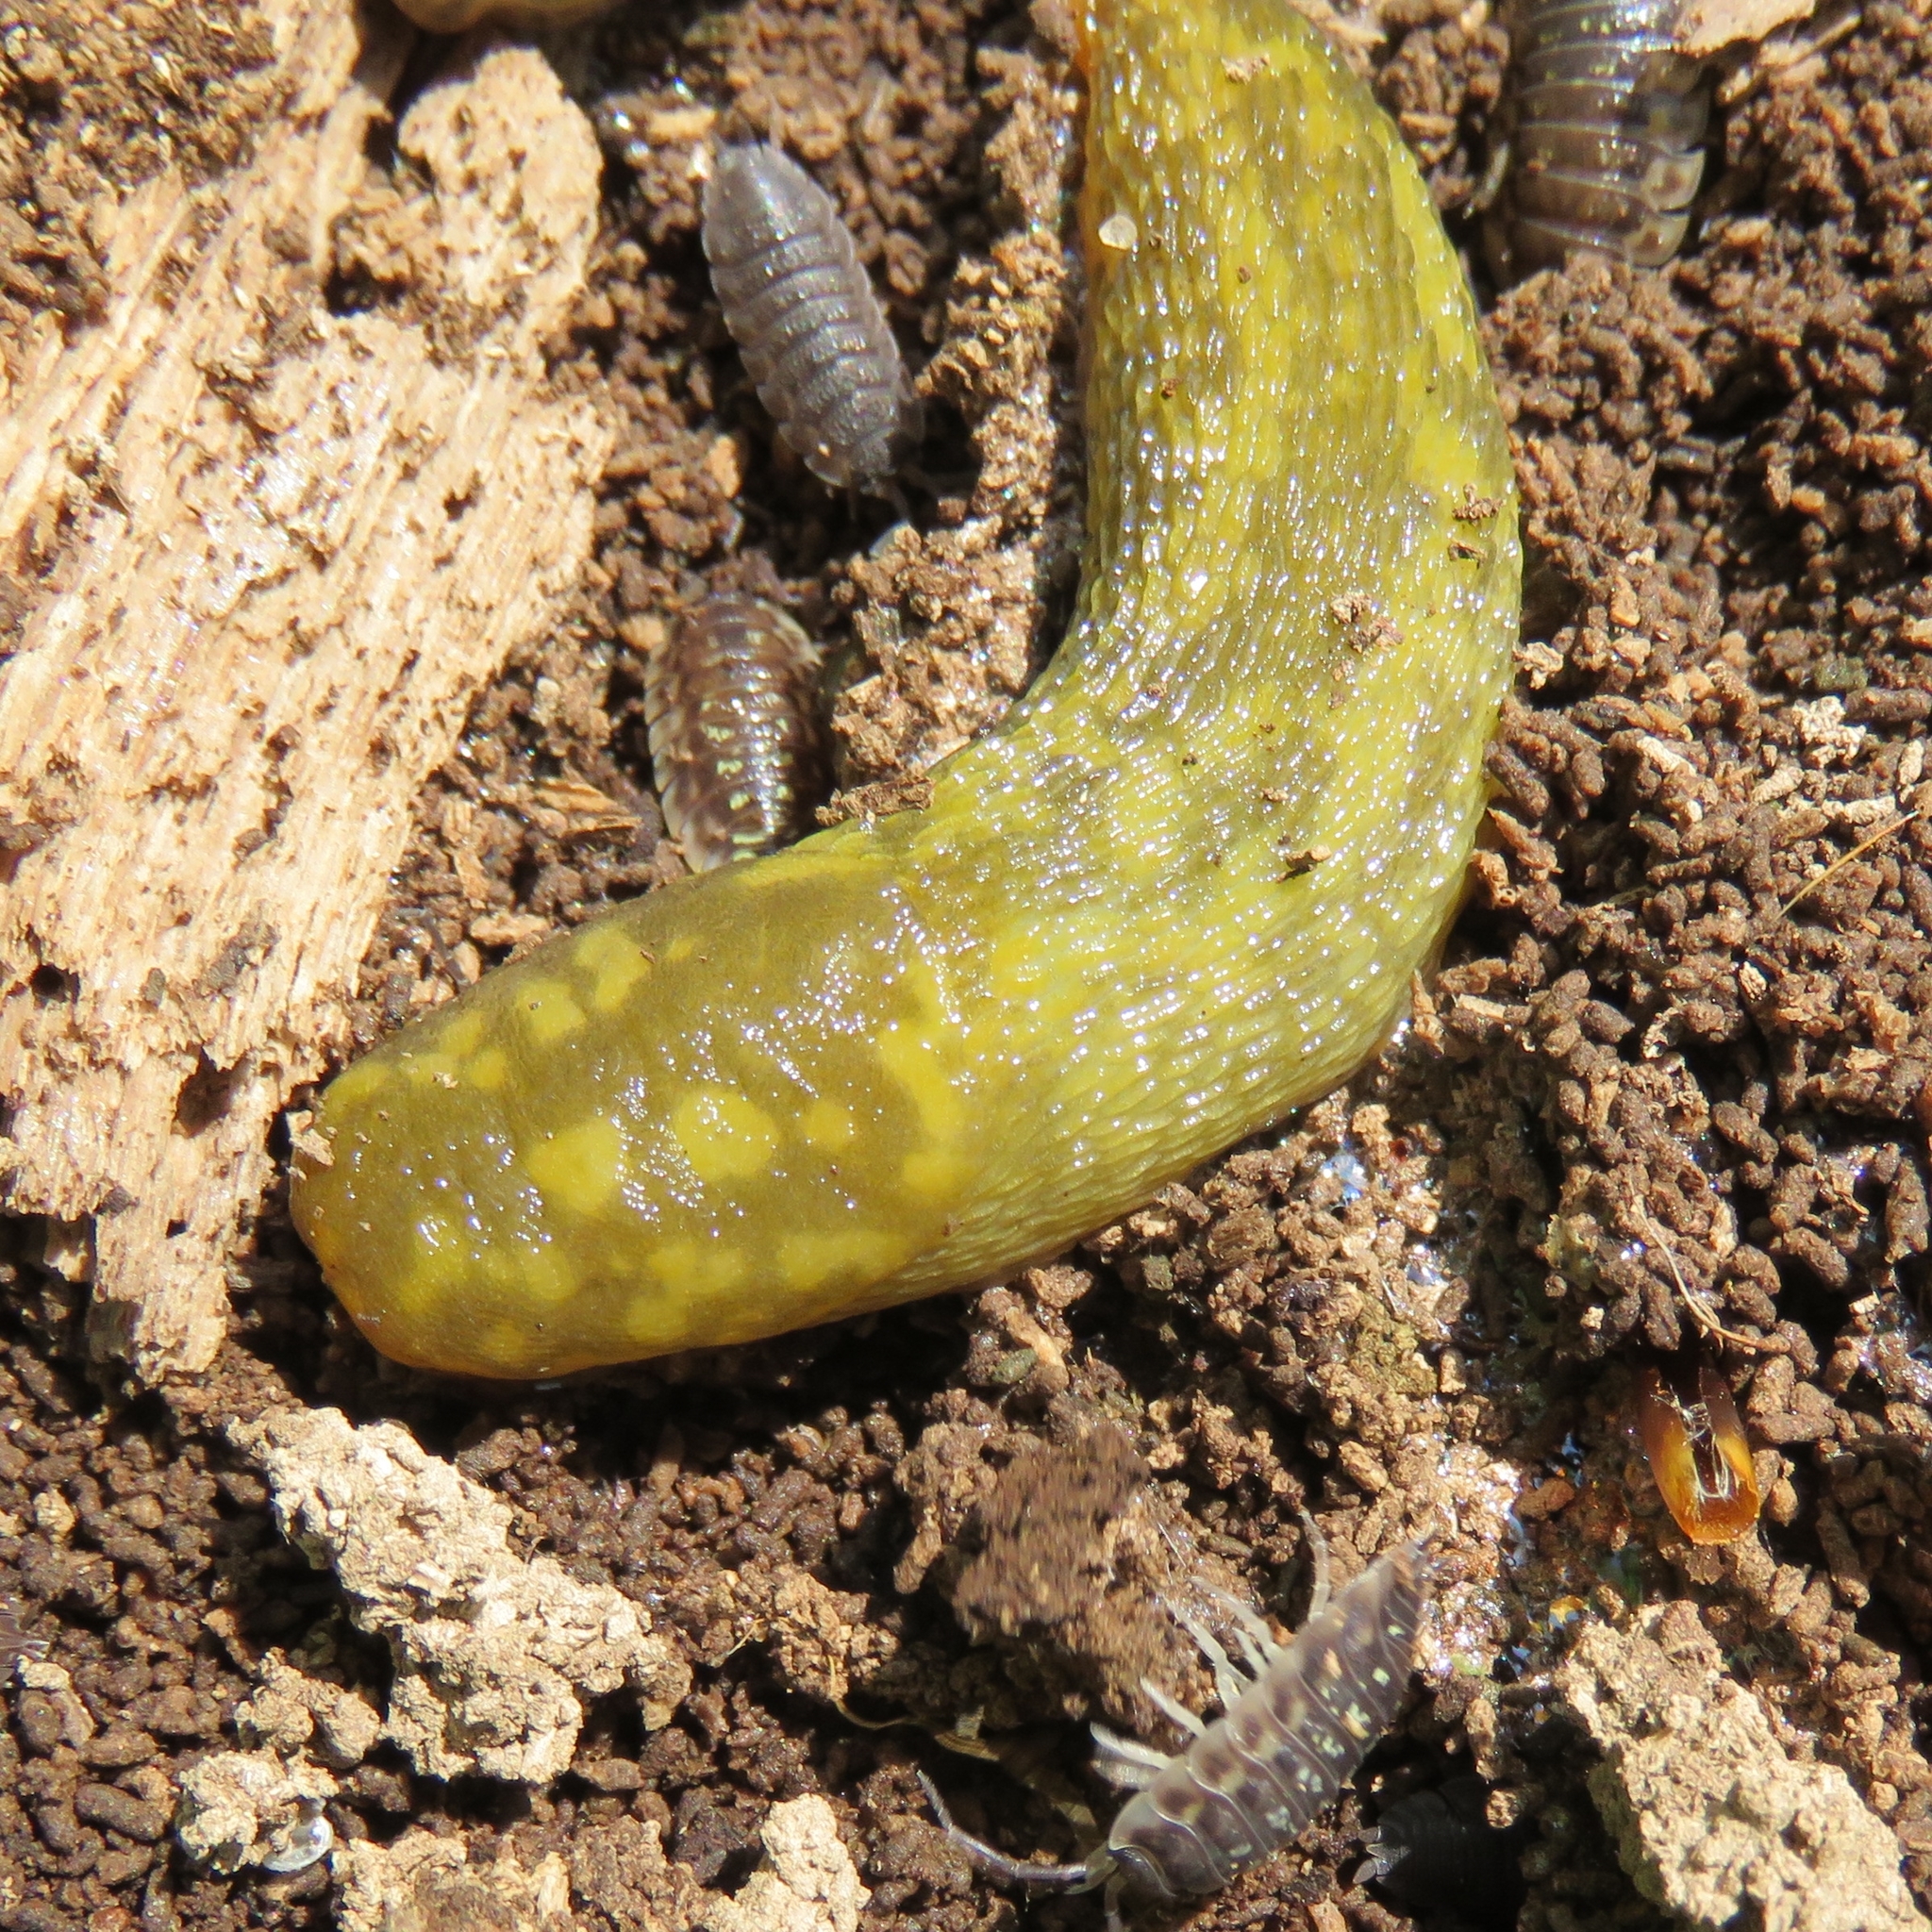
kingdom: Animalia
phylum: Mollusca
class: Gastropoda
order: Stylommatophora
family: Limacidae
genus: Limacus
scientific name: Limacus maculatus
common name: Irish yellow slug
